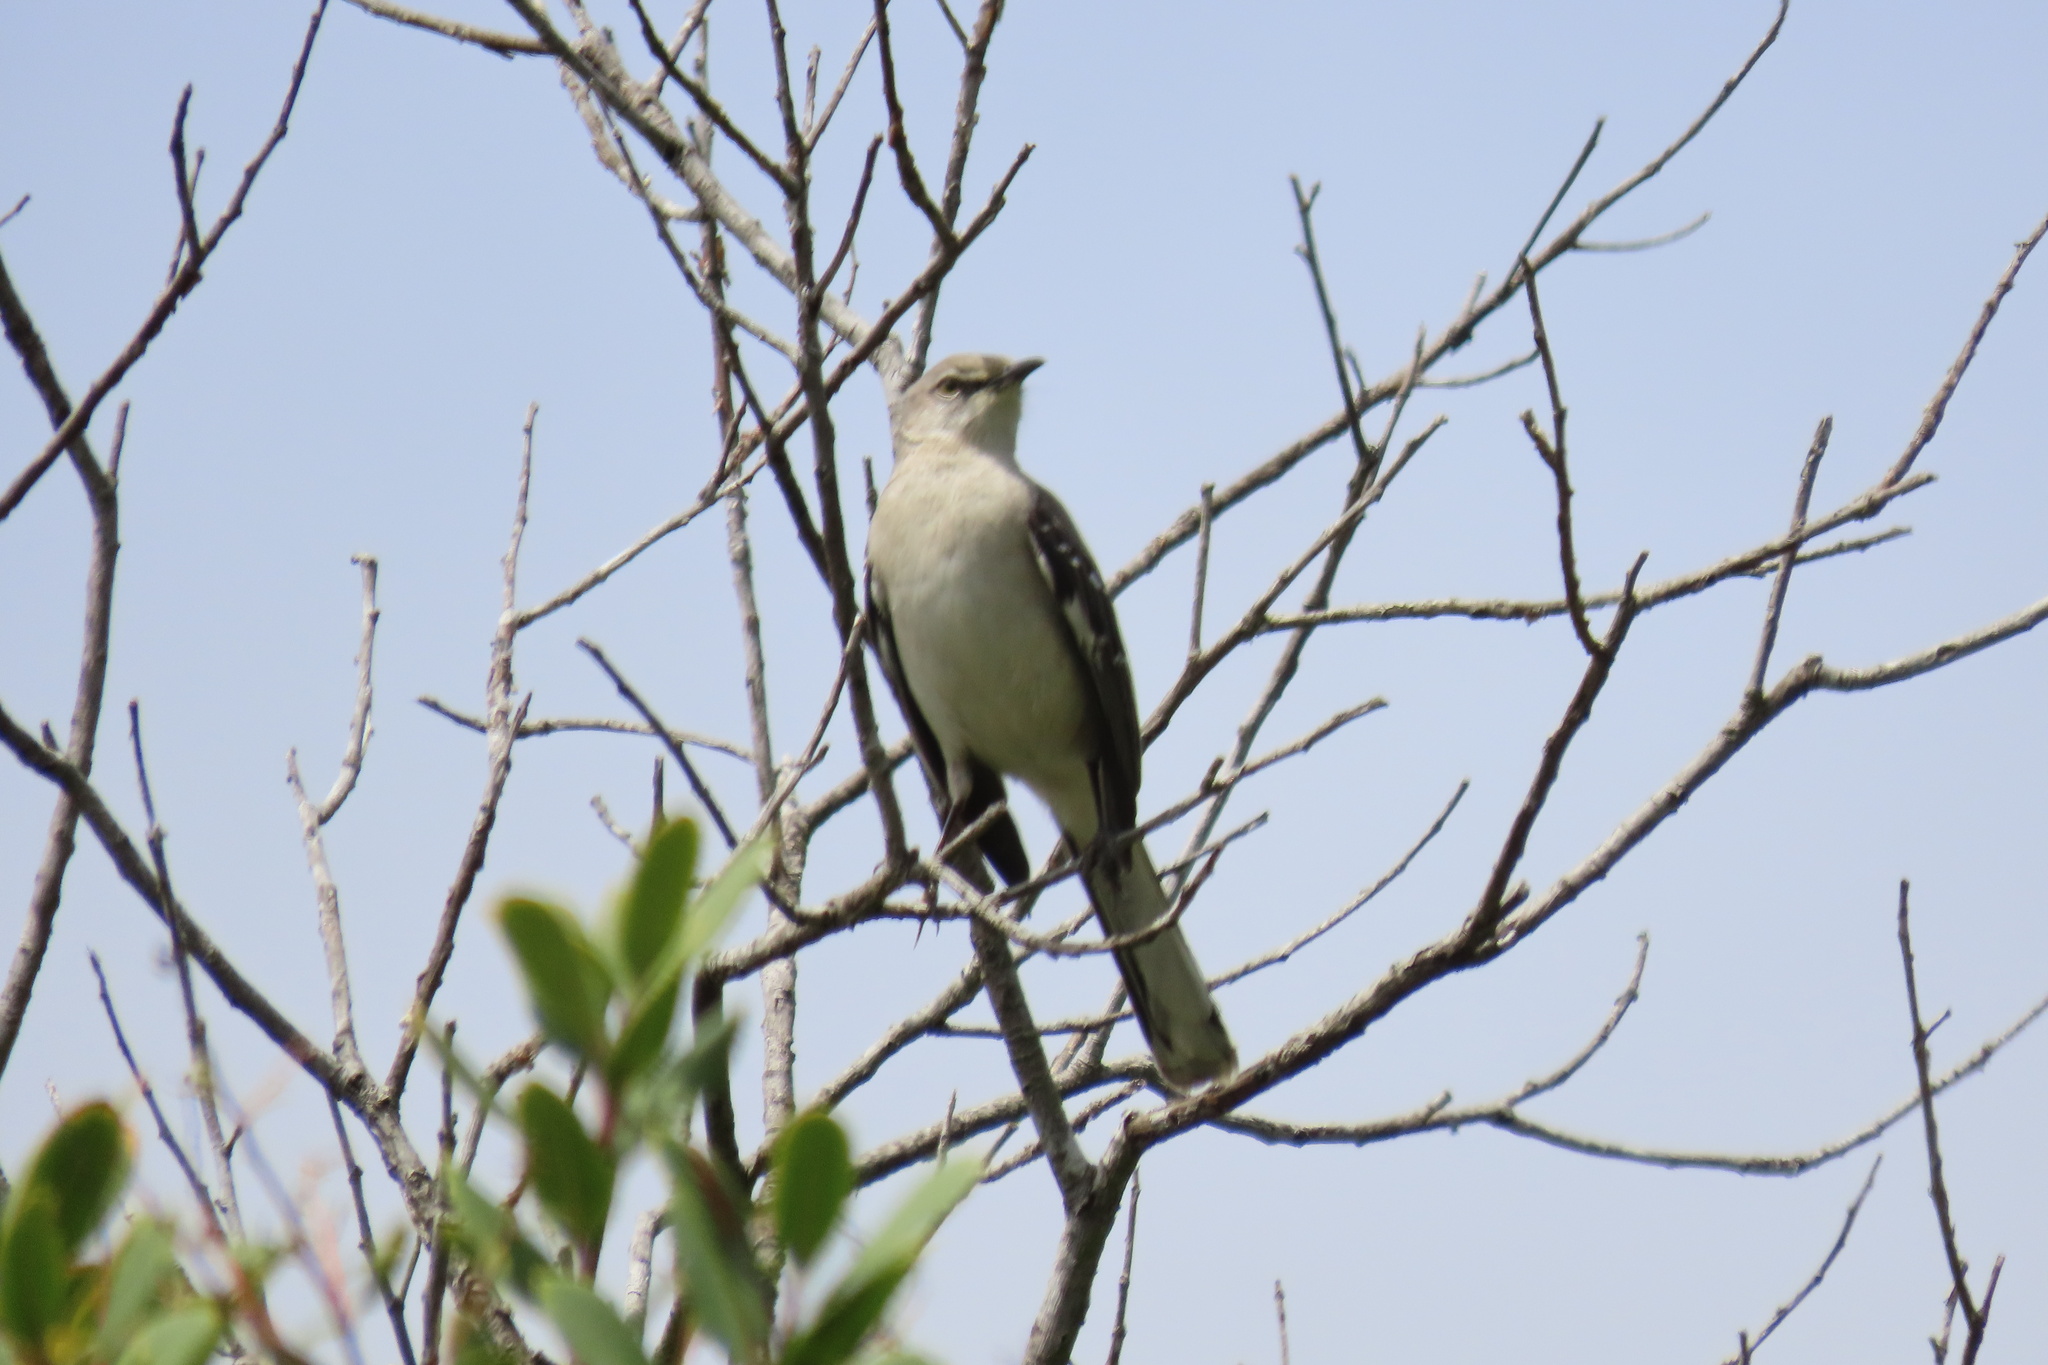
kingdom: Animalia
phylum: Chordata
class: Aves
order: Passeriformes
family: Mimidae
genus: Mimus
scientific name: Mimus polyglottos
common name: Northern mockingbird
